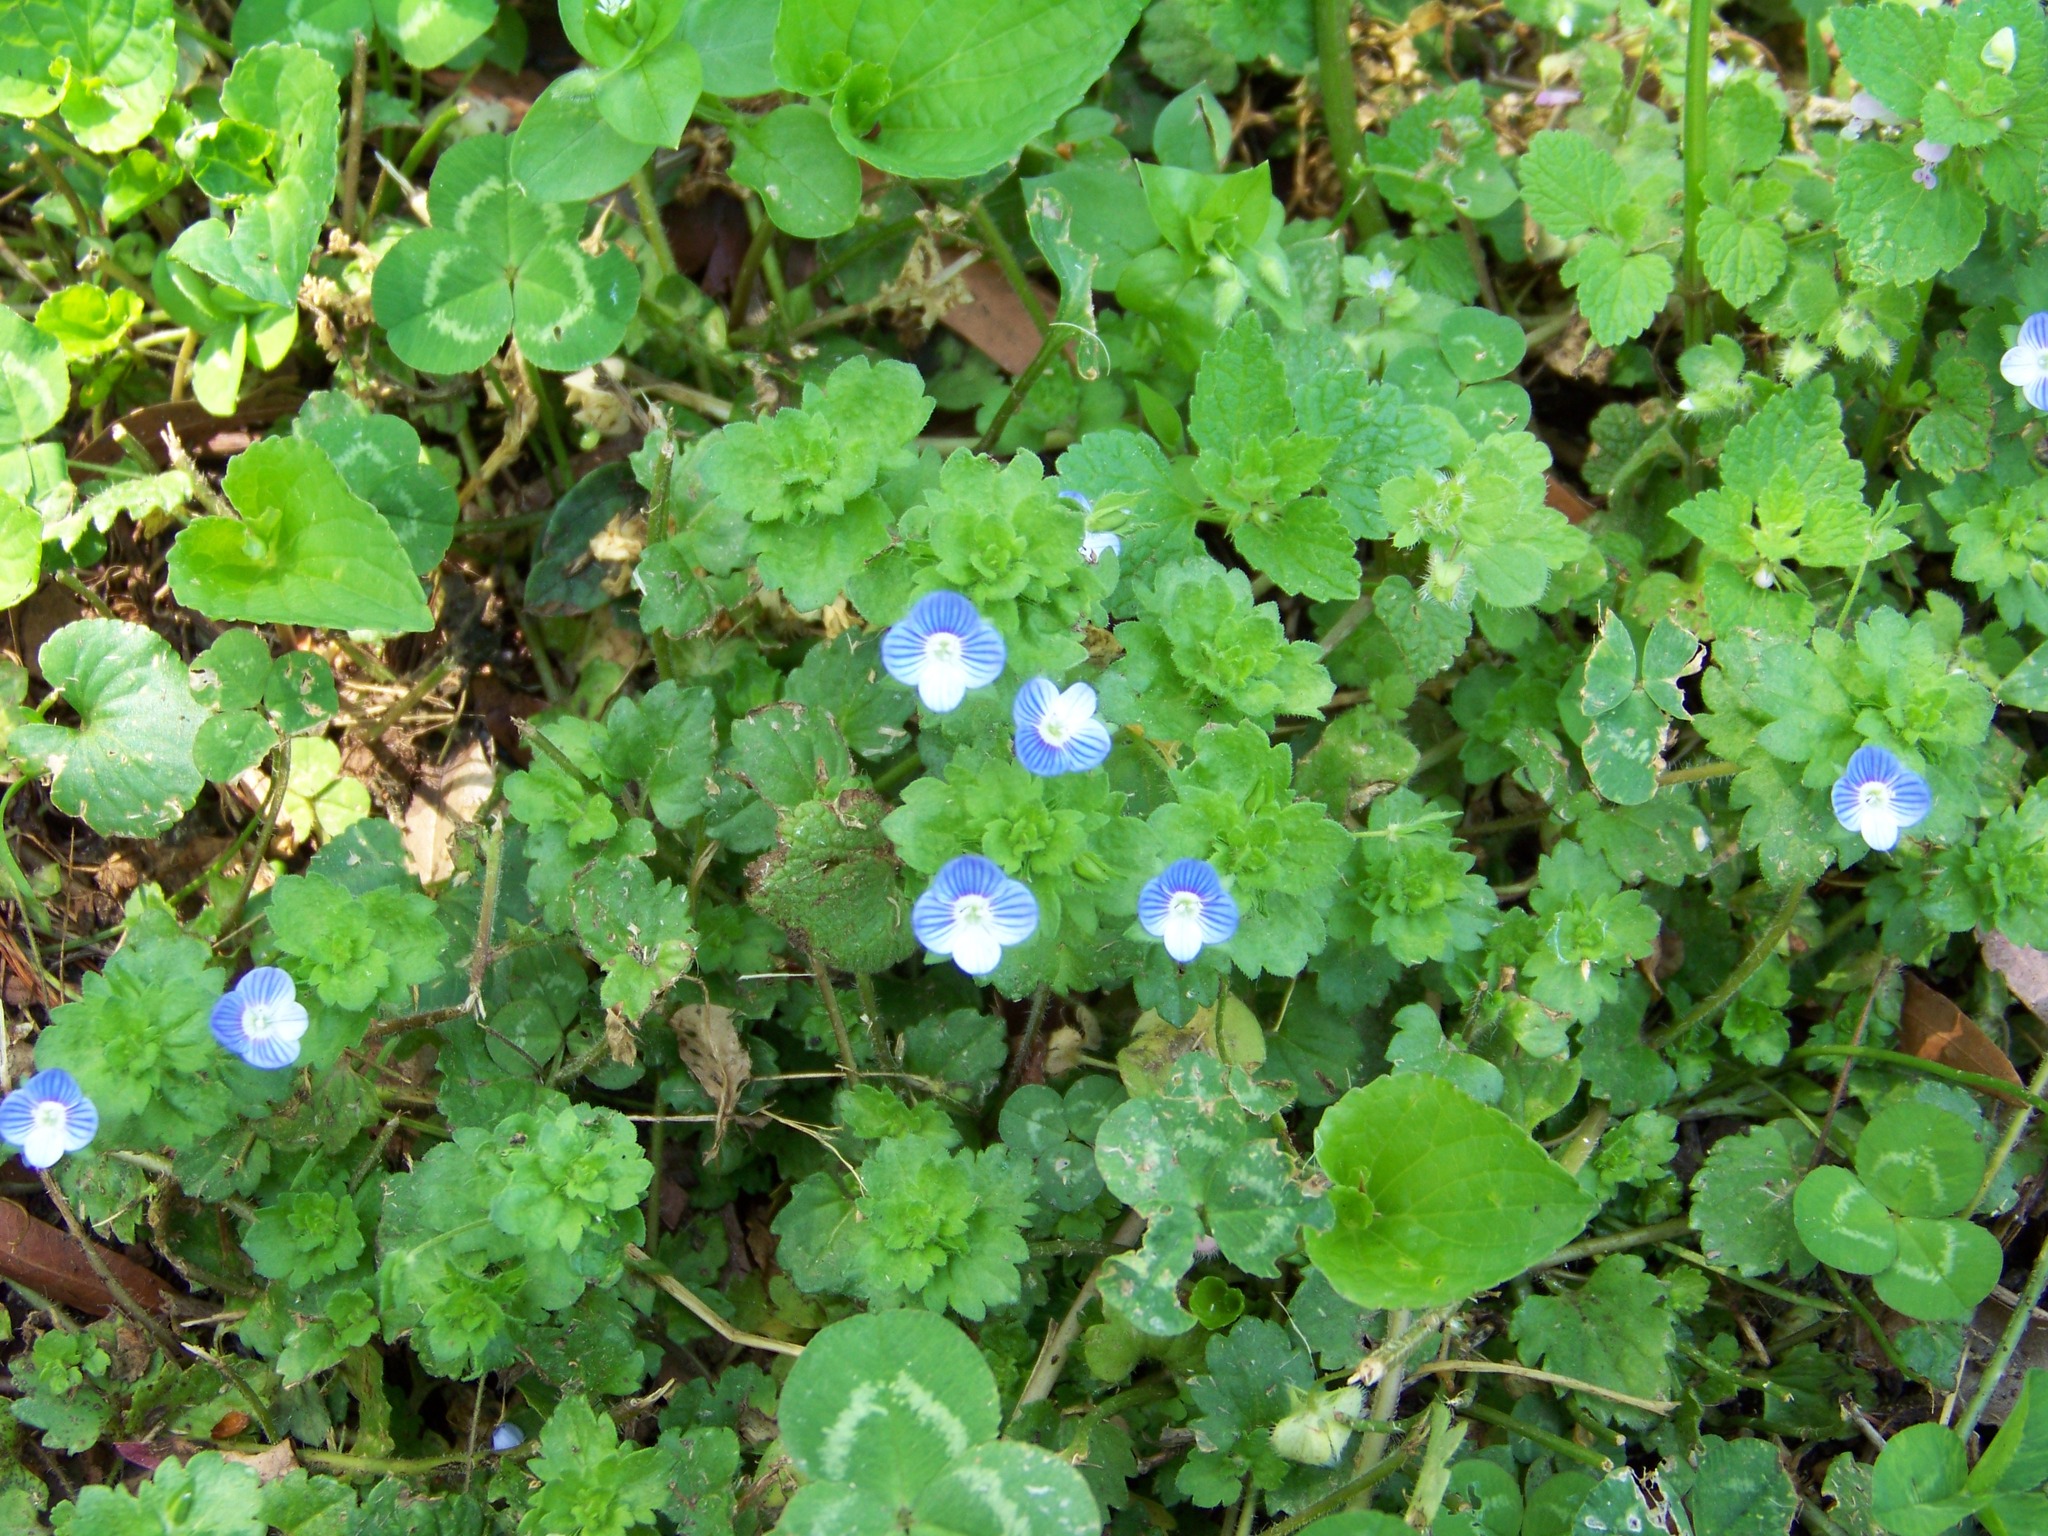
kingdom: Plantae
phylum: Tracheophyta
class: Magnoliopsida
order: Lamiales
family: Plantaginaceae
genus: Veronica
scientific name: Veronica persica
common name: Common field-speedwell
